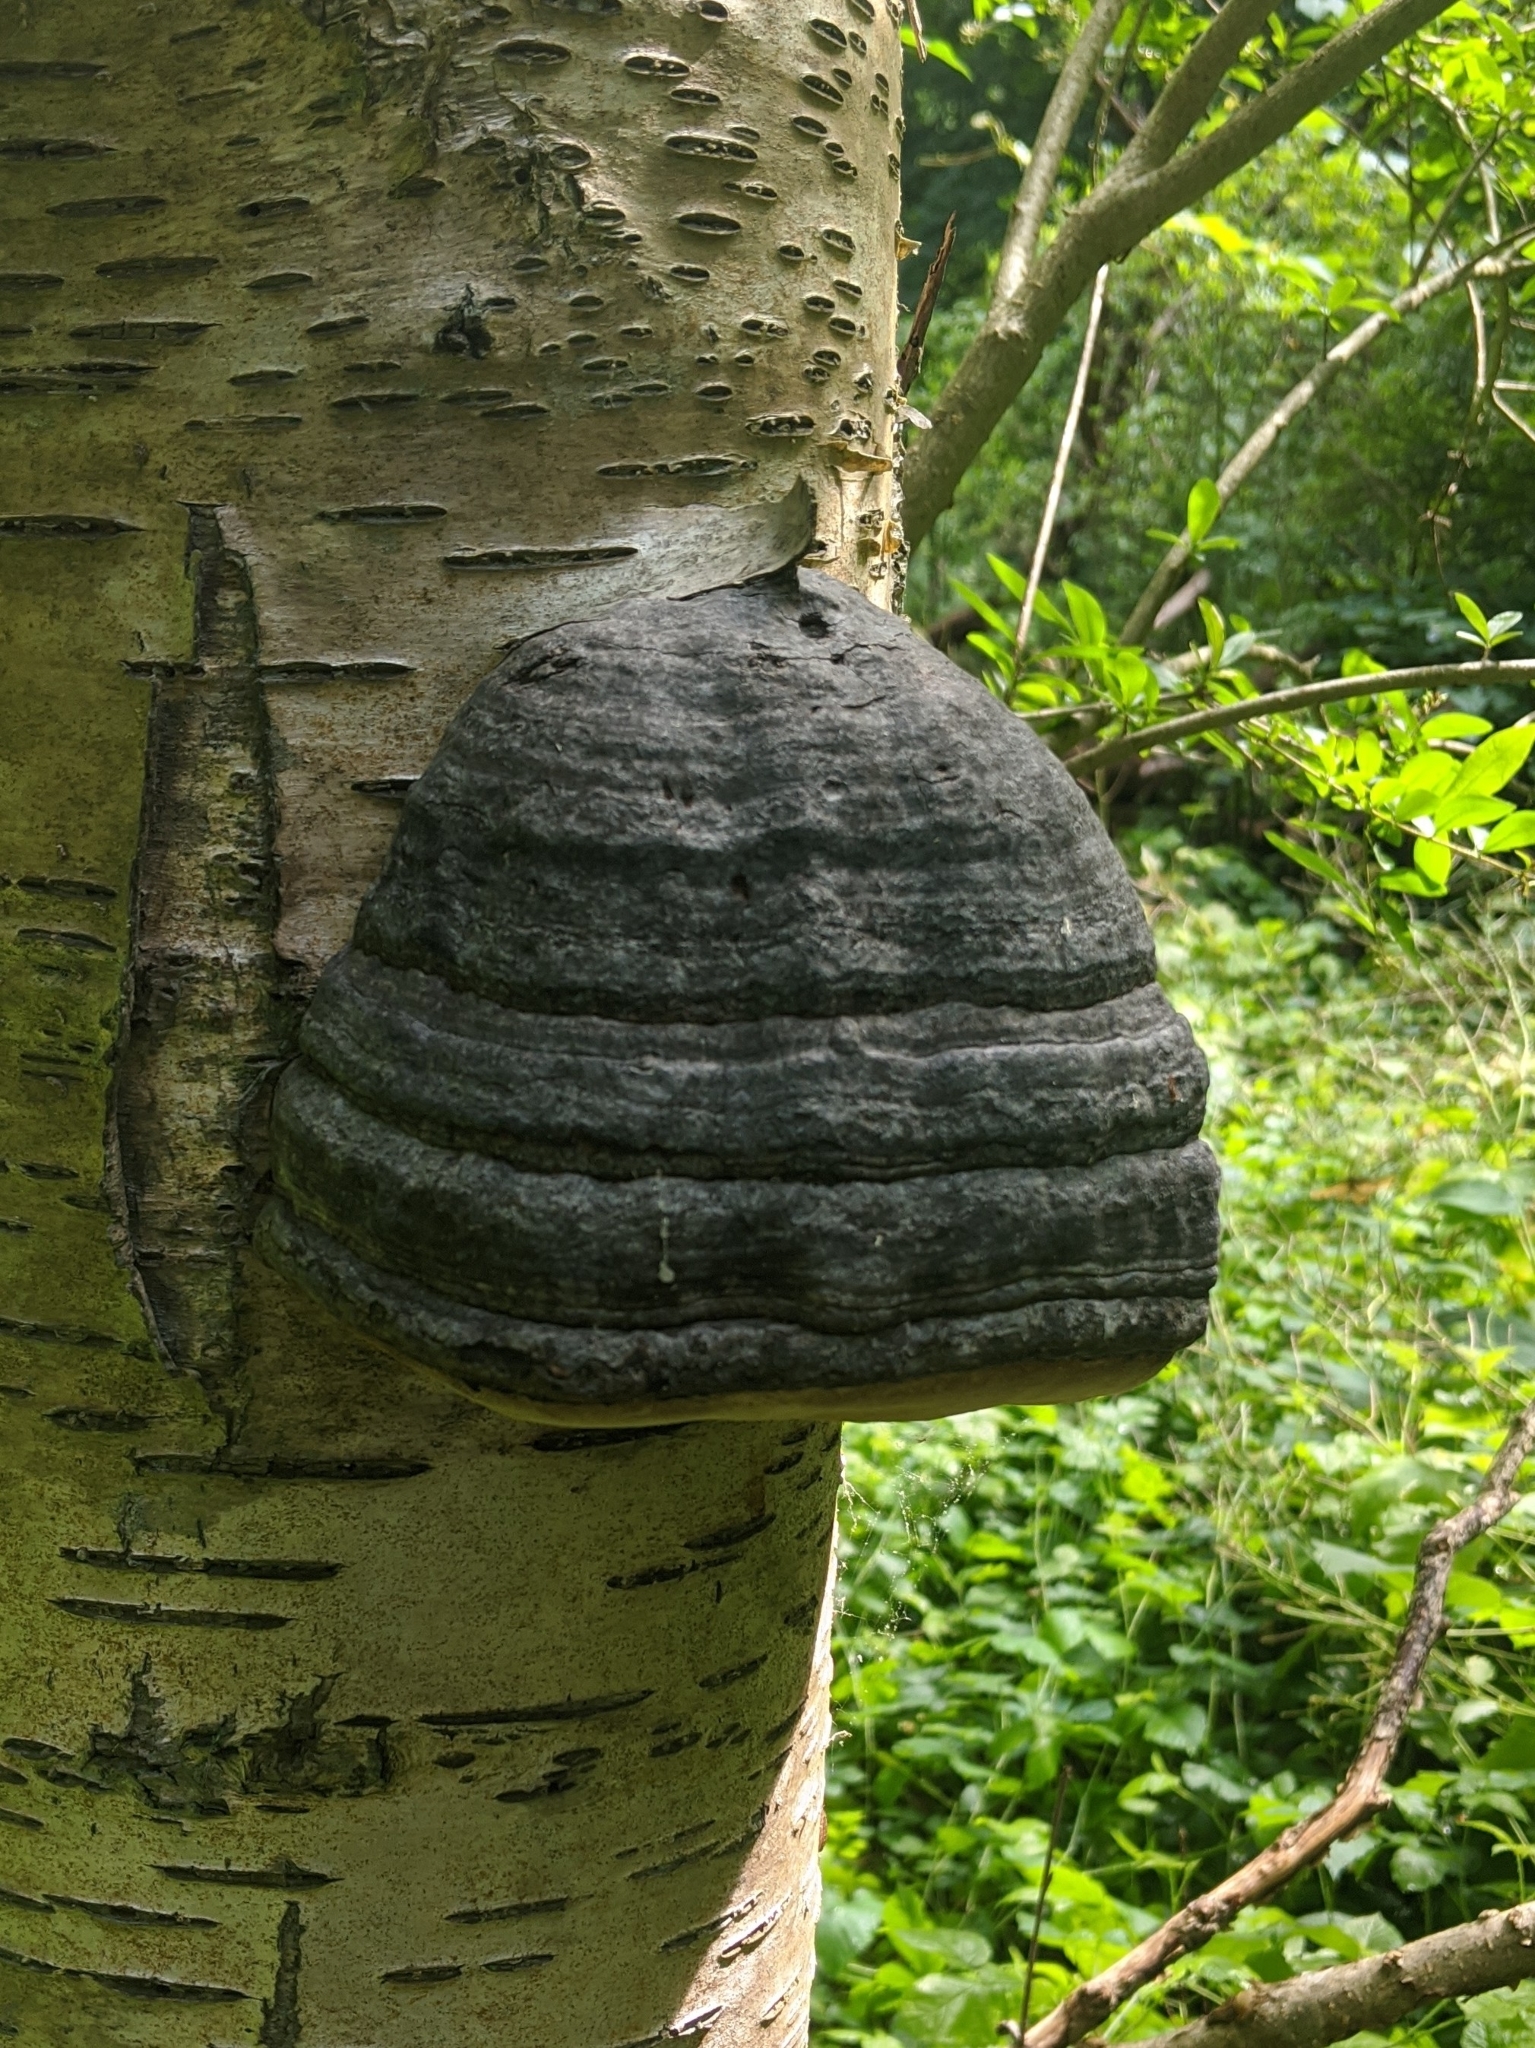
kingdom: Fungi
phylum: Basidiomycota
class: Agaricomycetes
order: Polyporales
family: Polyporaceae
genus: Fomes
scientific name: Fomes fomentarius
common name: Hoof fungus
